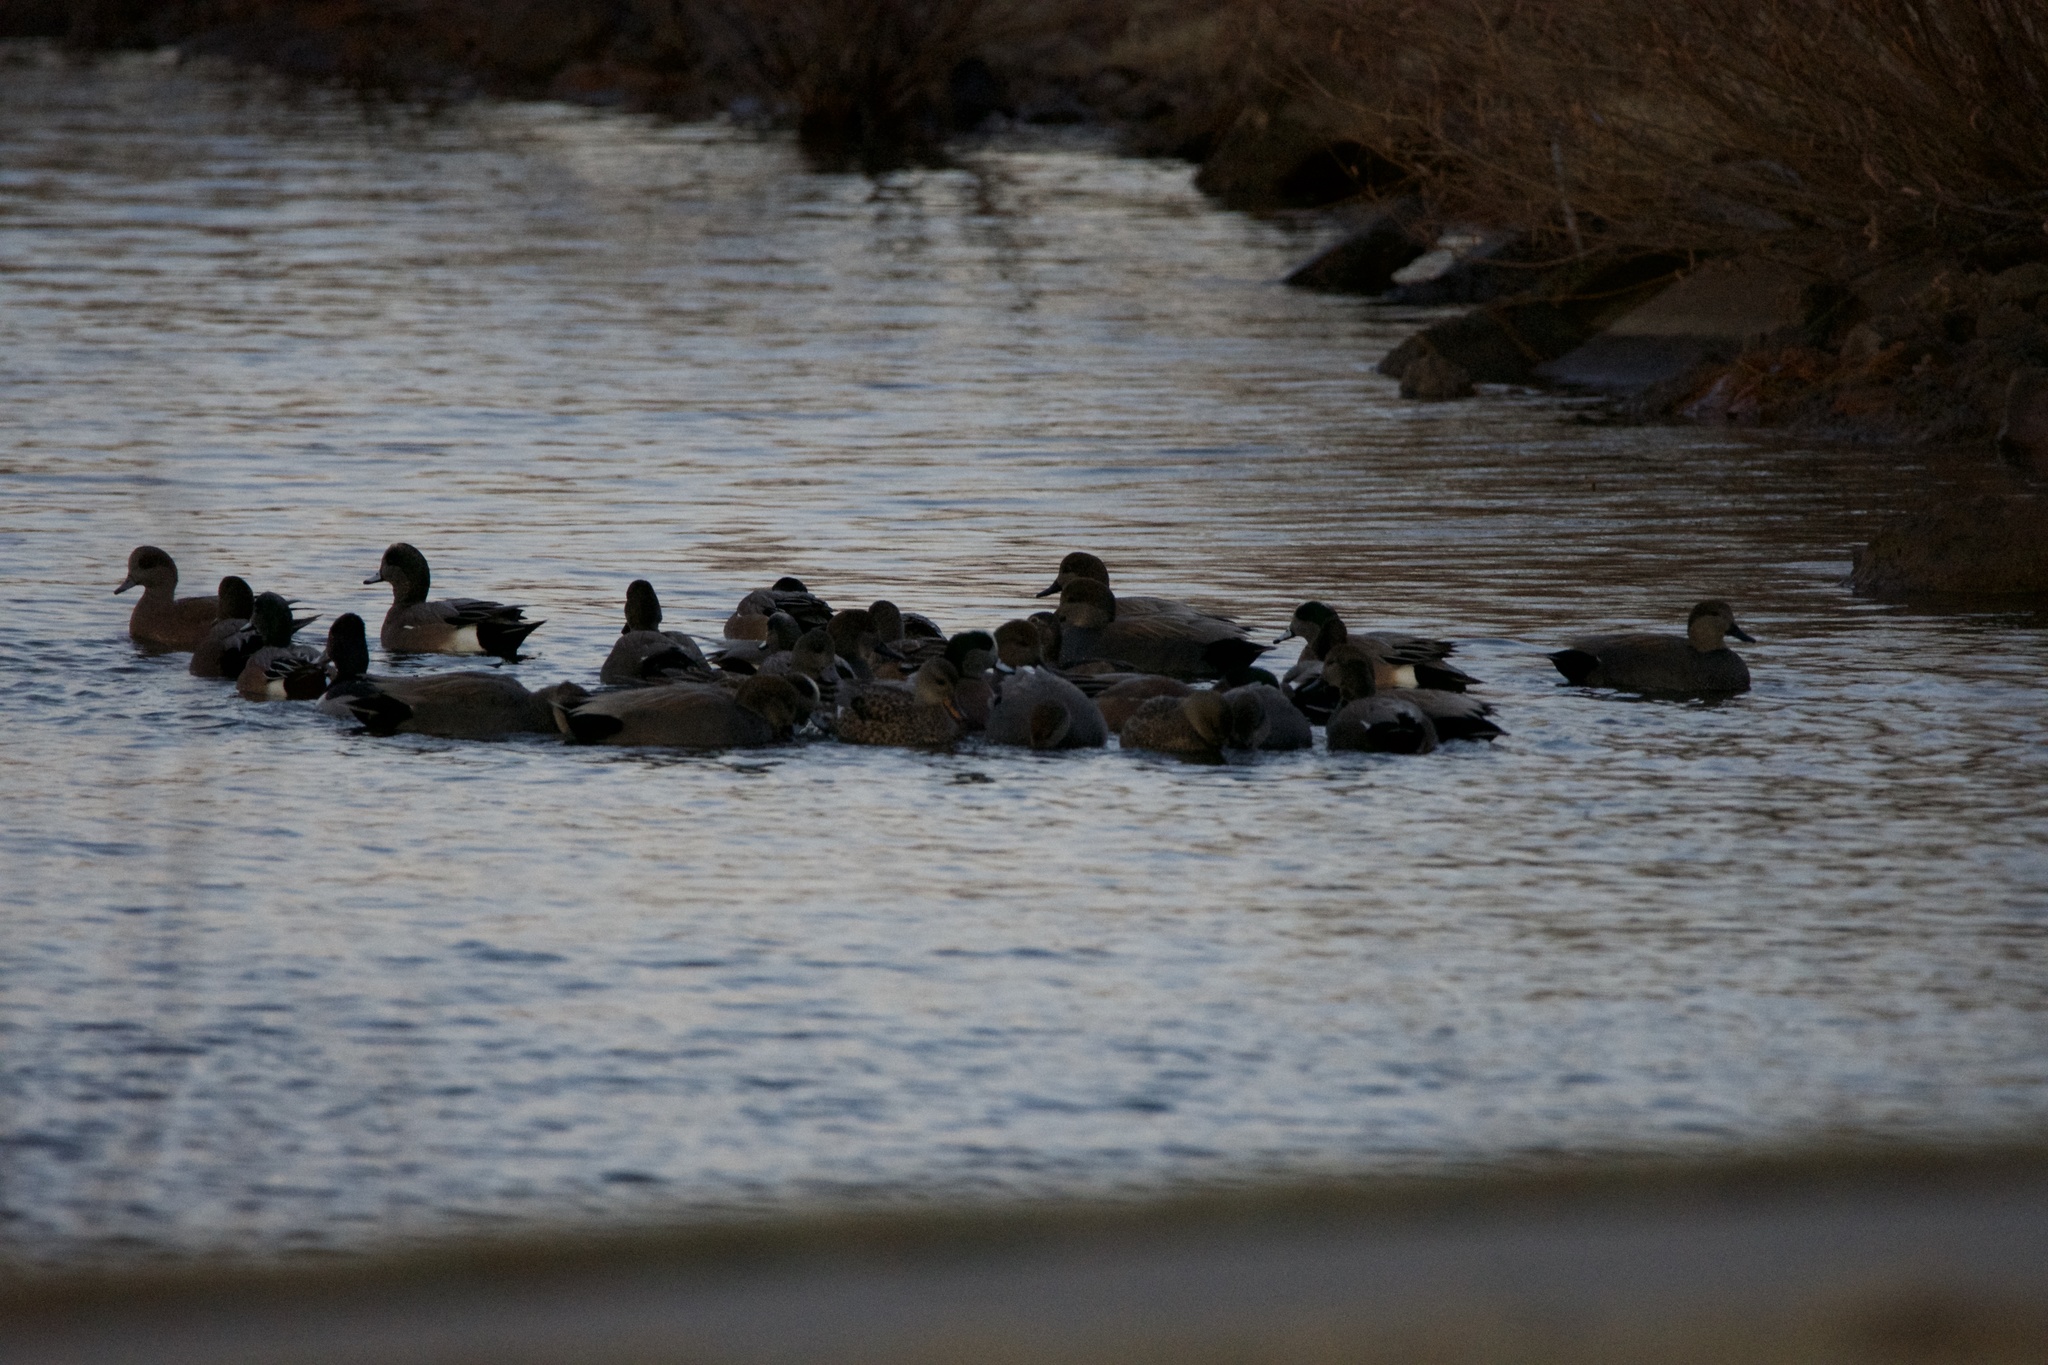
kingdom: Animalia
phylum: Chordata
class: Aves
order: Anseriformes
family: Anatidae
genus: Mareca
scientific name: Mareca strepera
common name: Gadwall
